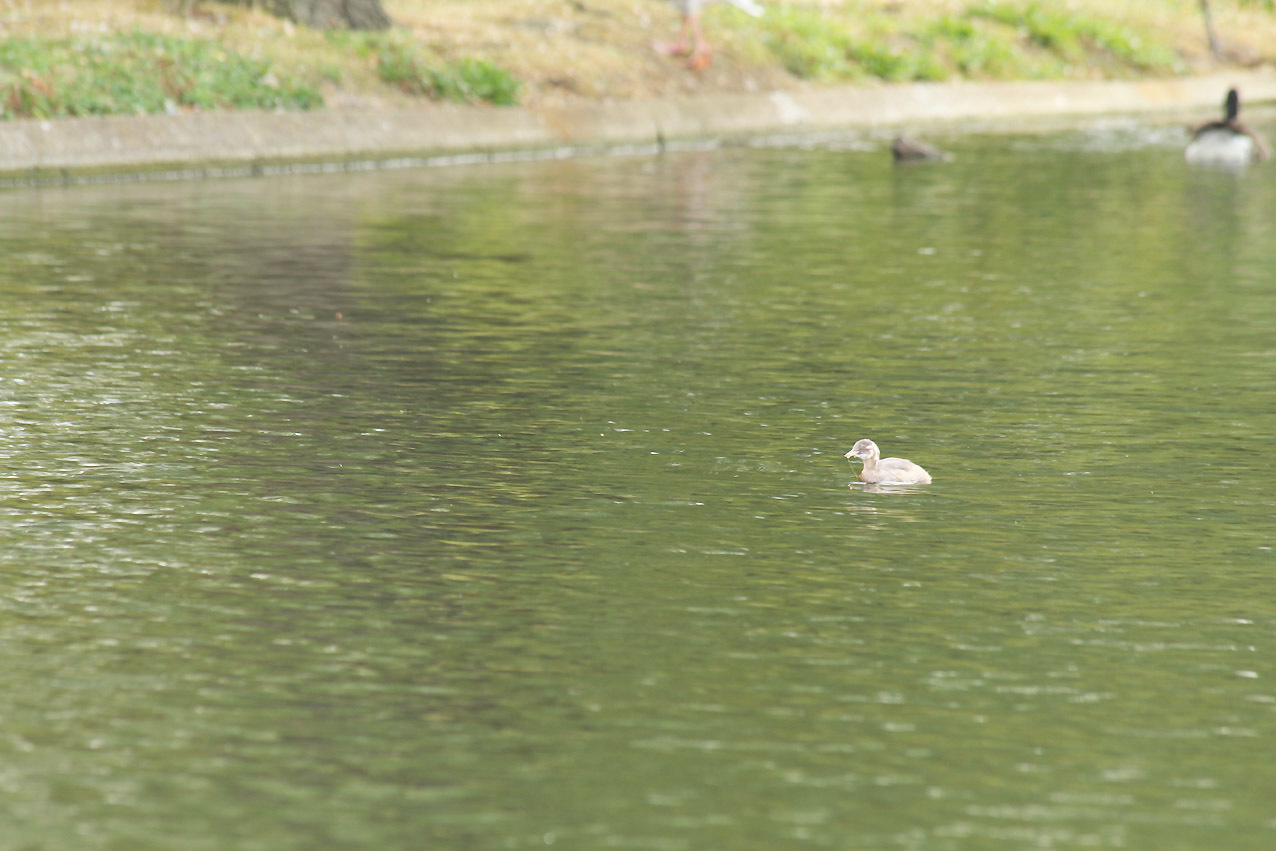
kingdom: Animalia
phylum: Chordata
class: Aves
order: Podicipediformes
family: Podicipedidae
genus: Tachybaptus
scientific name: Tachybaptus ruficollis
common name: Little grebe
